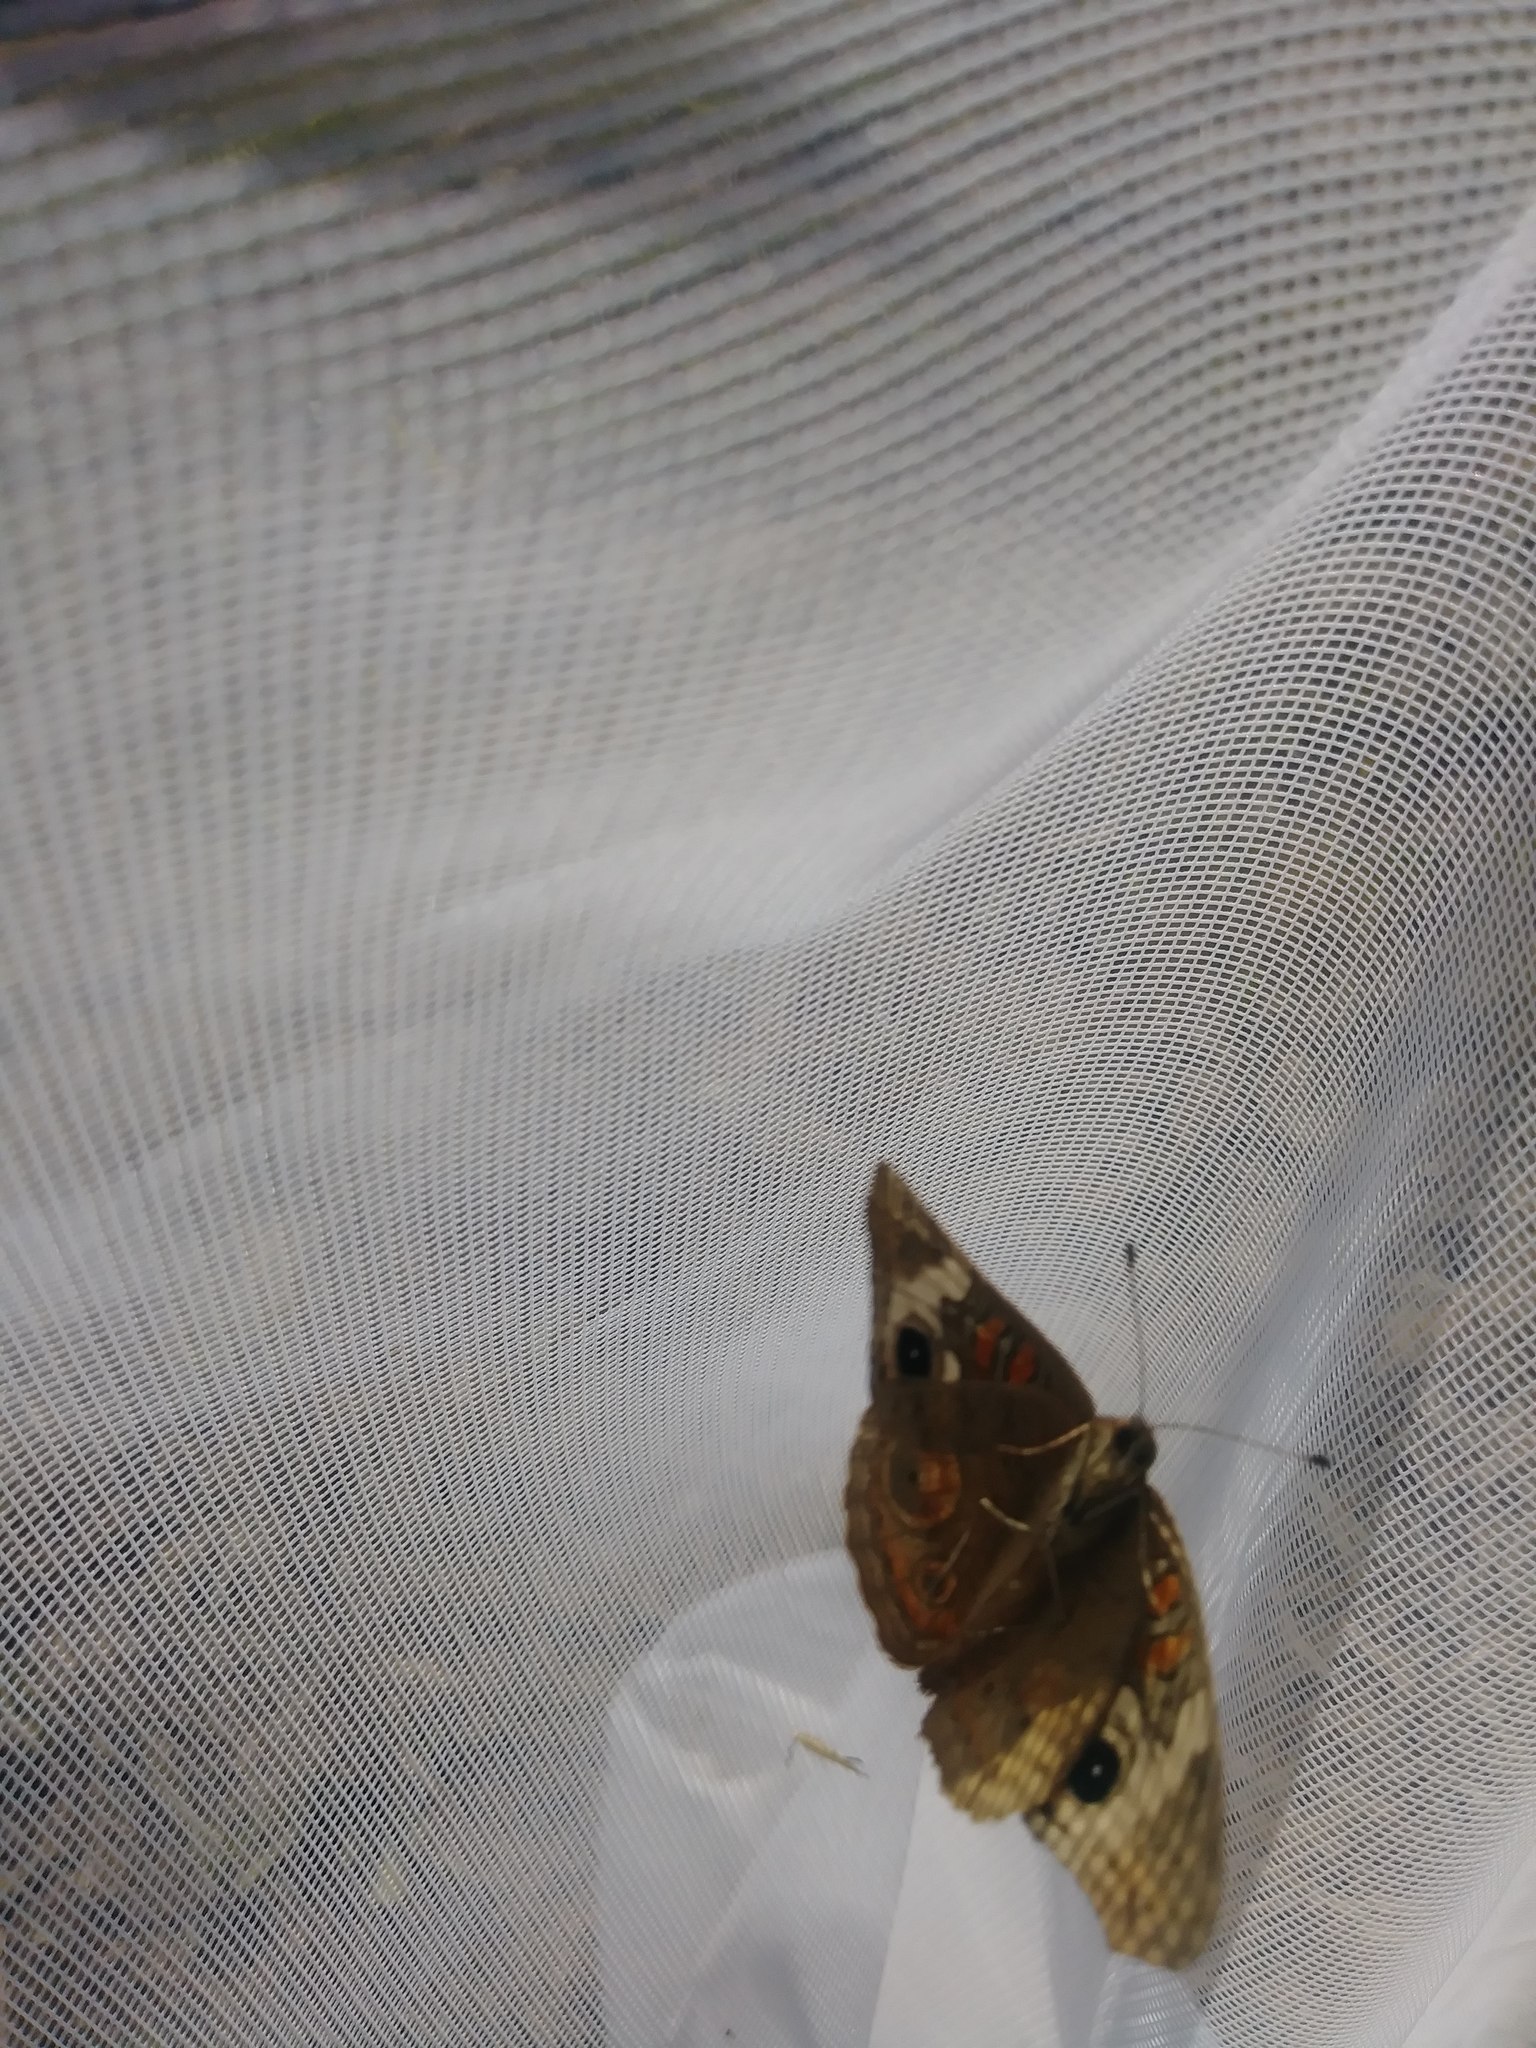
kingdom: Animalia
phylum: Arthropoda
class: Insecta
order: Lepidoptera
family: Nymphalidae
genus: Junonia
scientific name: Junonia grisea
